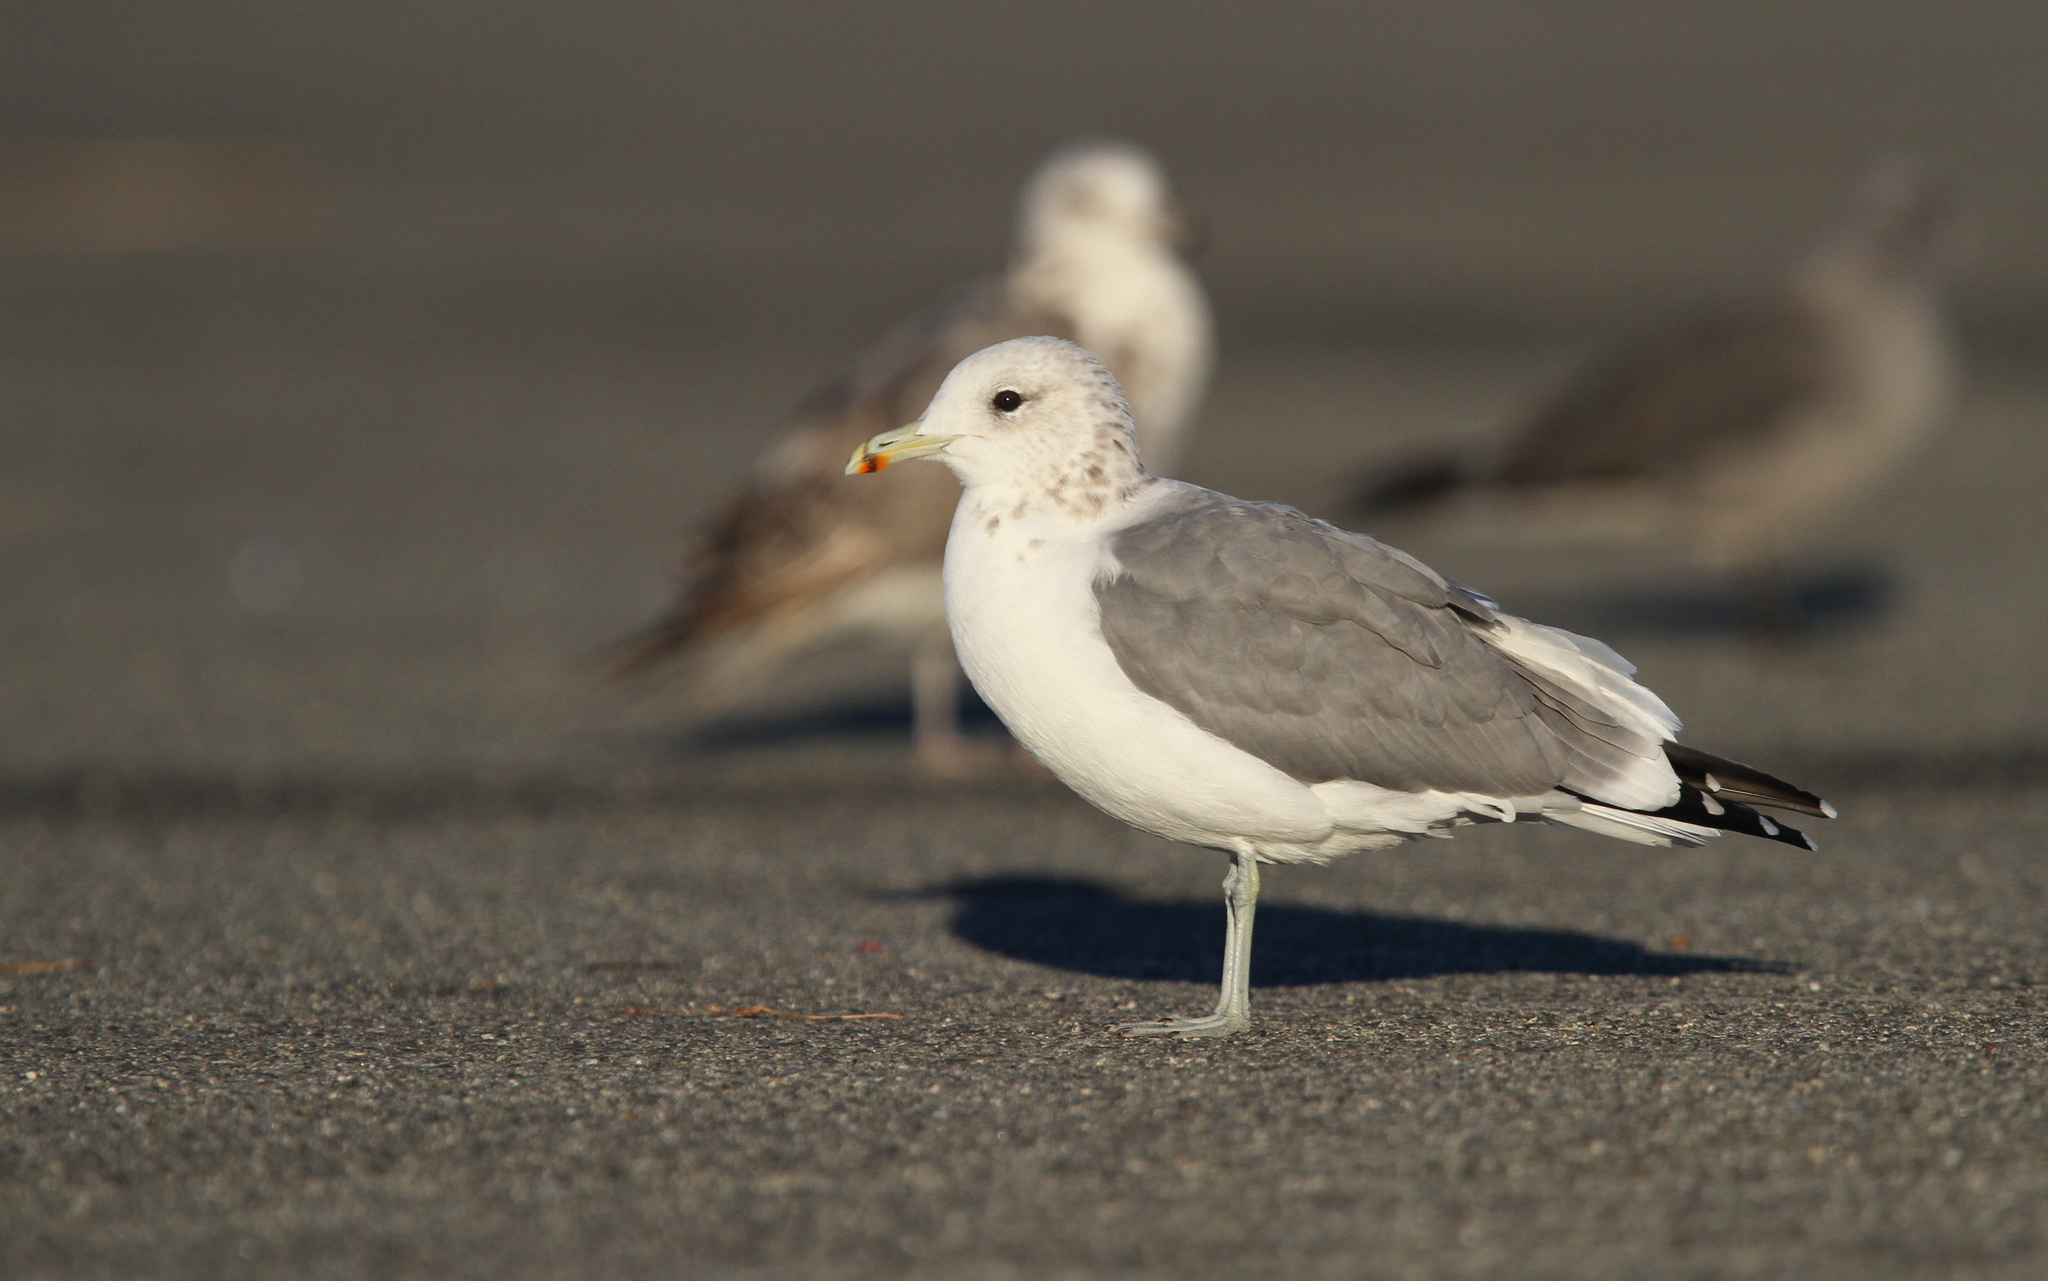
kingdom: Animalia
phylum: Chordata
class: Aves
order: Charadriiformes
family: Laridae
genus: Larus
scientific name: Larus californicus
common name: California gull
